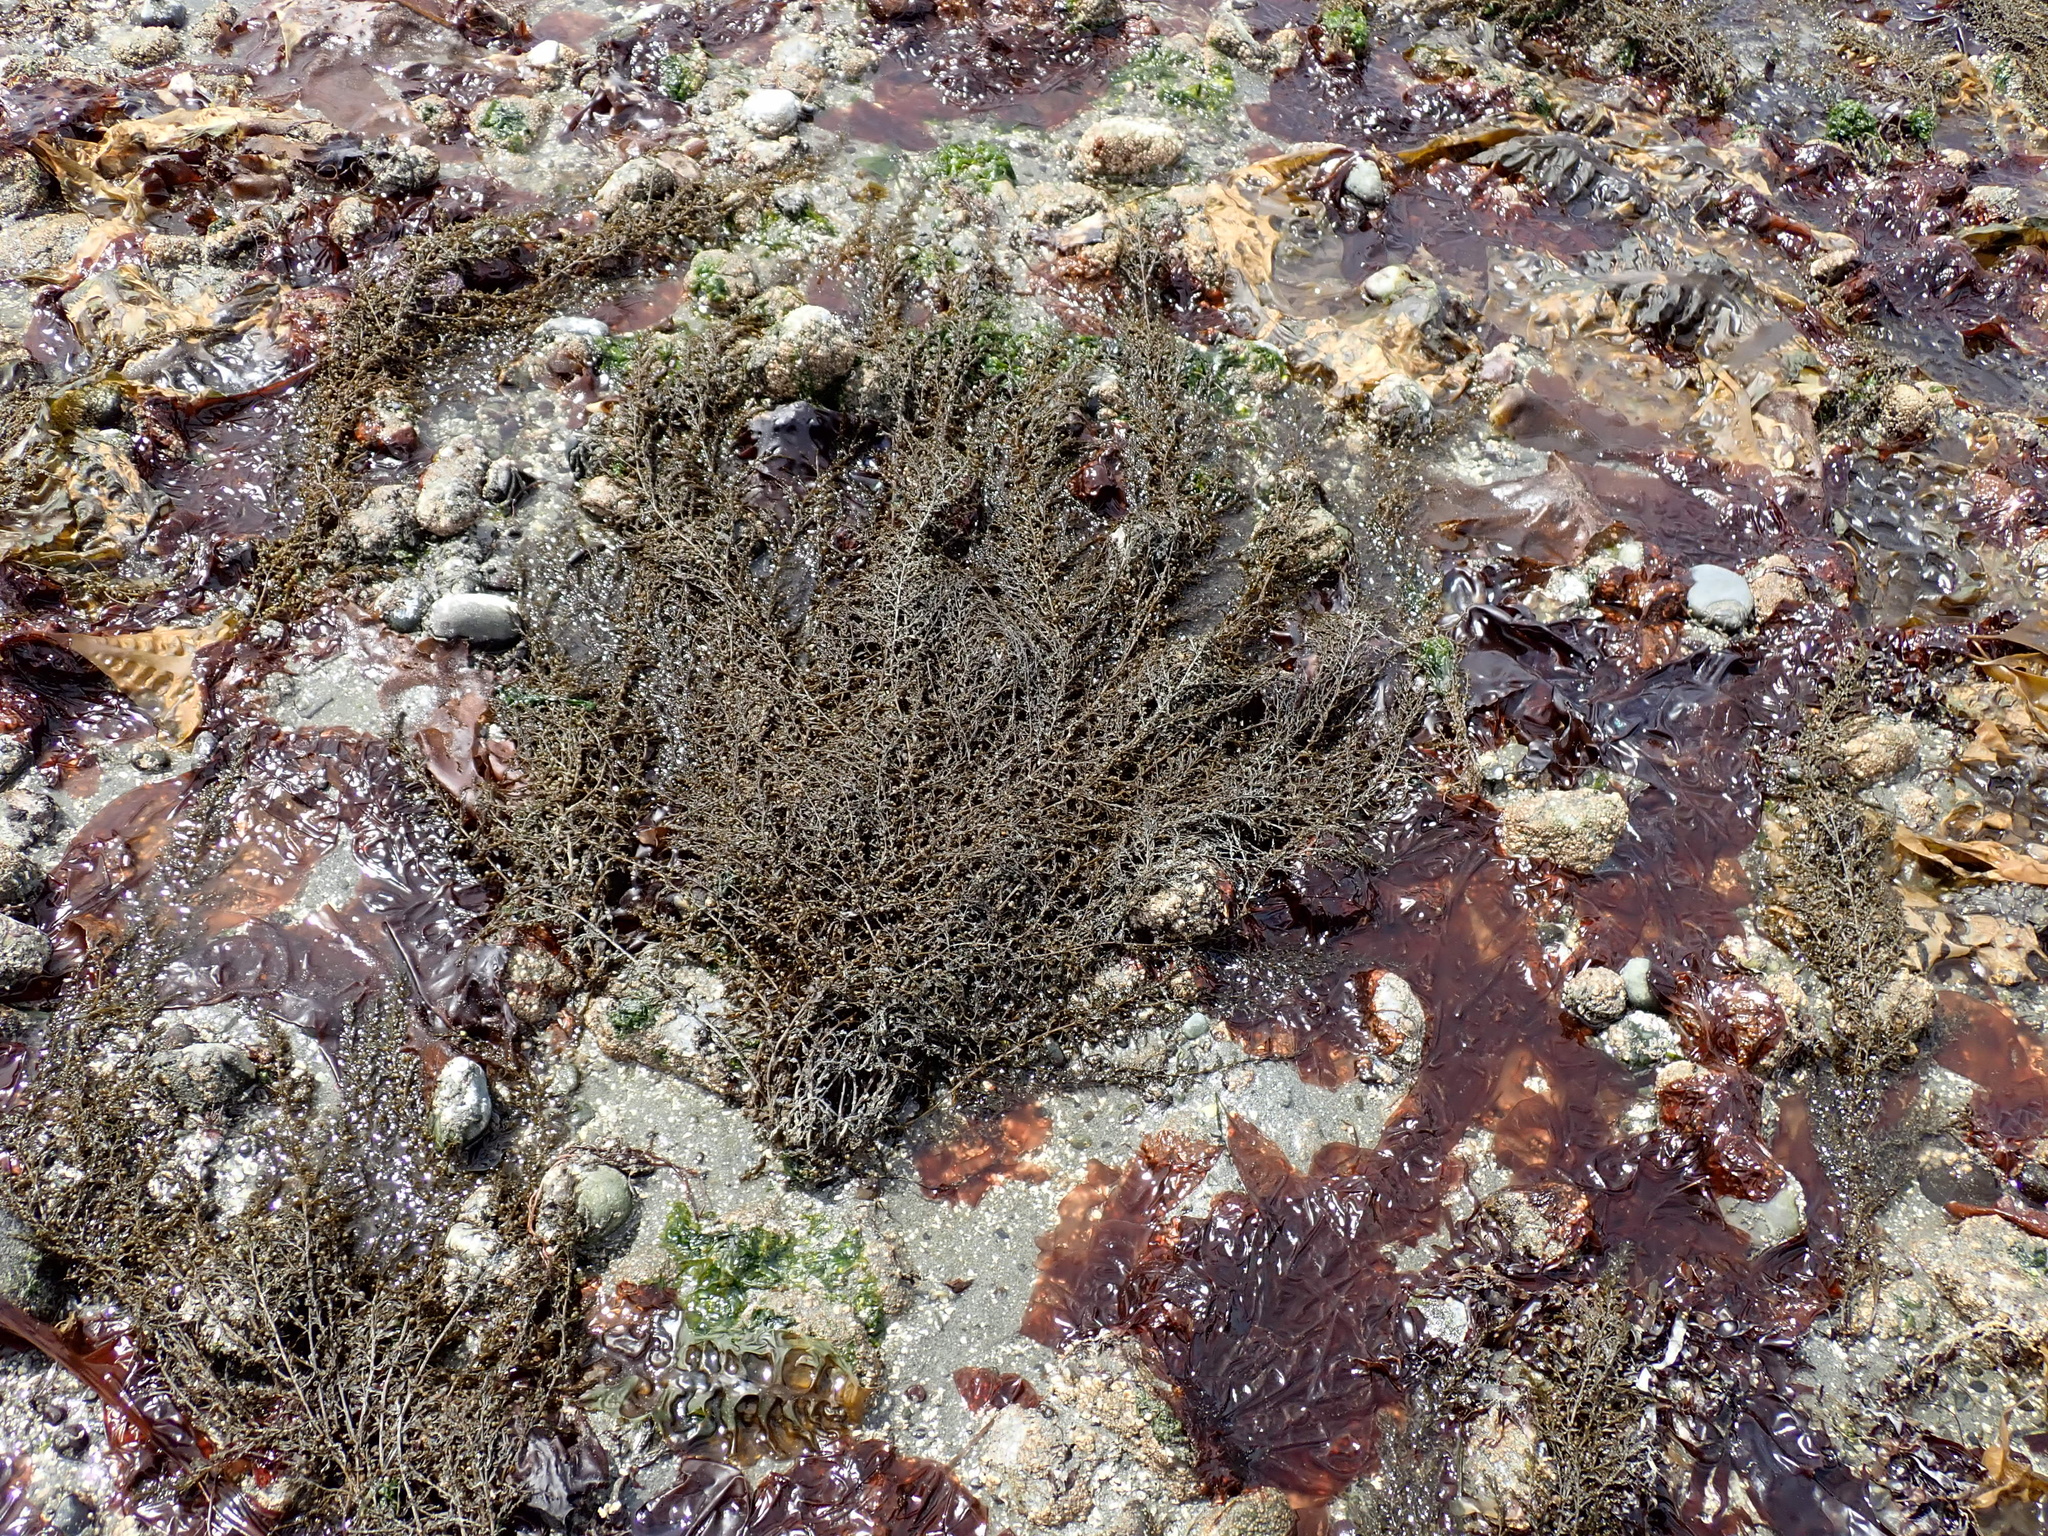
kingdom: Chromista
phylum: Ochrophyta
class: Phaeophyceae
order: Fucales
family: Sargassaceae
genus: Sargassum
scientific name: Sargassum muticum
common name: Japweed
